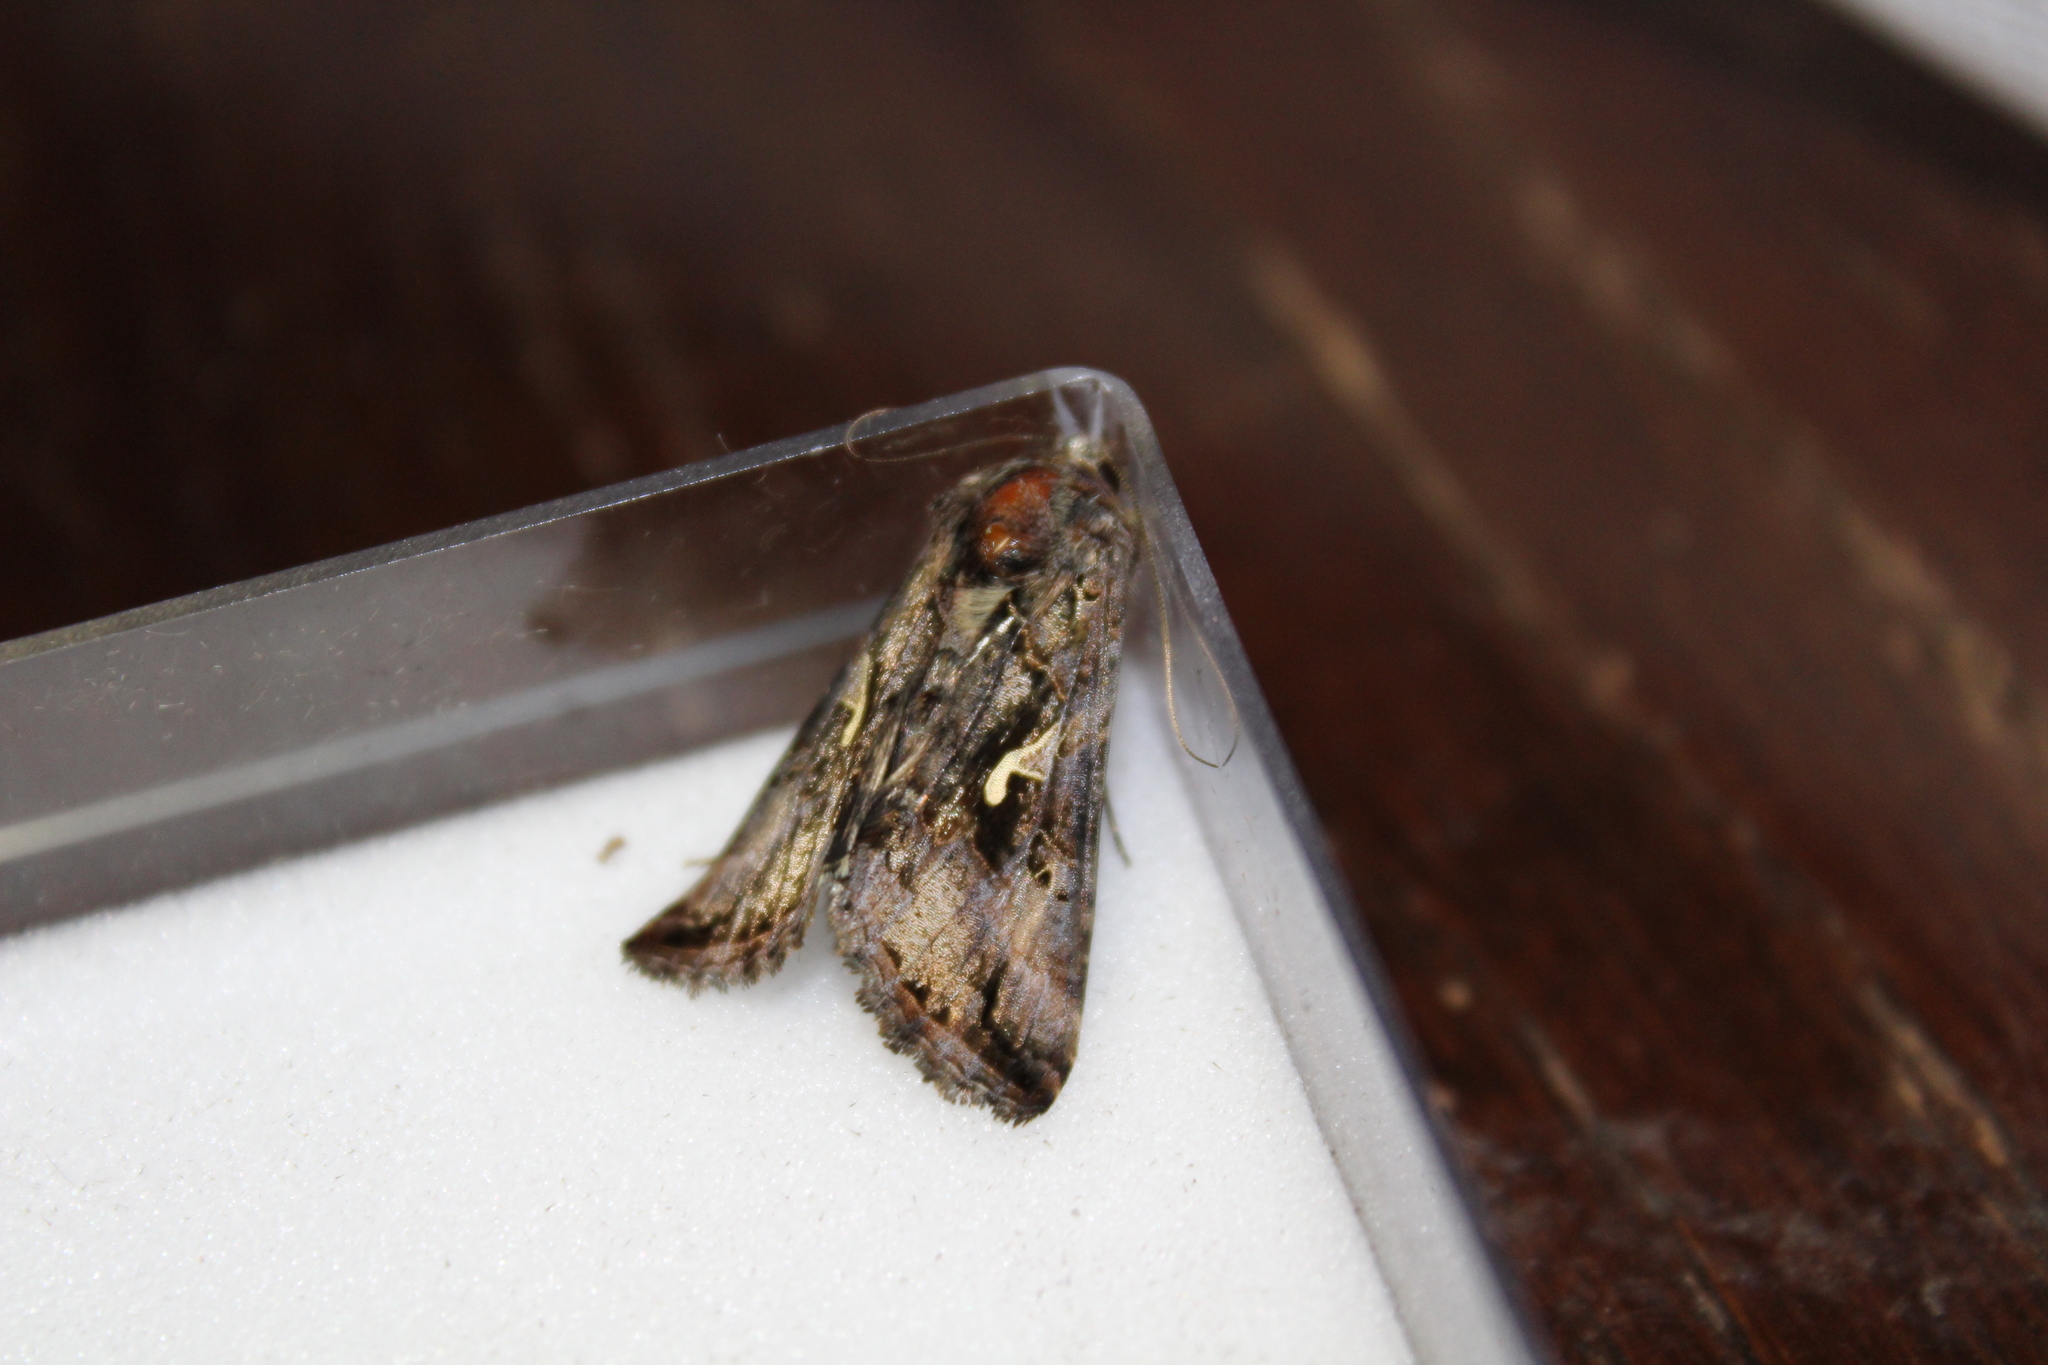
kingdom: Animalia
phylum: Arthropoda
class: Insecta
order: Lepidoptera
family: Noctuidae
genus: Autographa
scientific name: Autographa gamma
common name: Silver y
